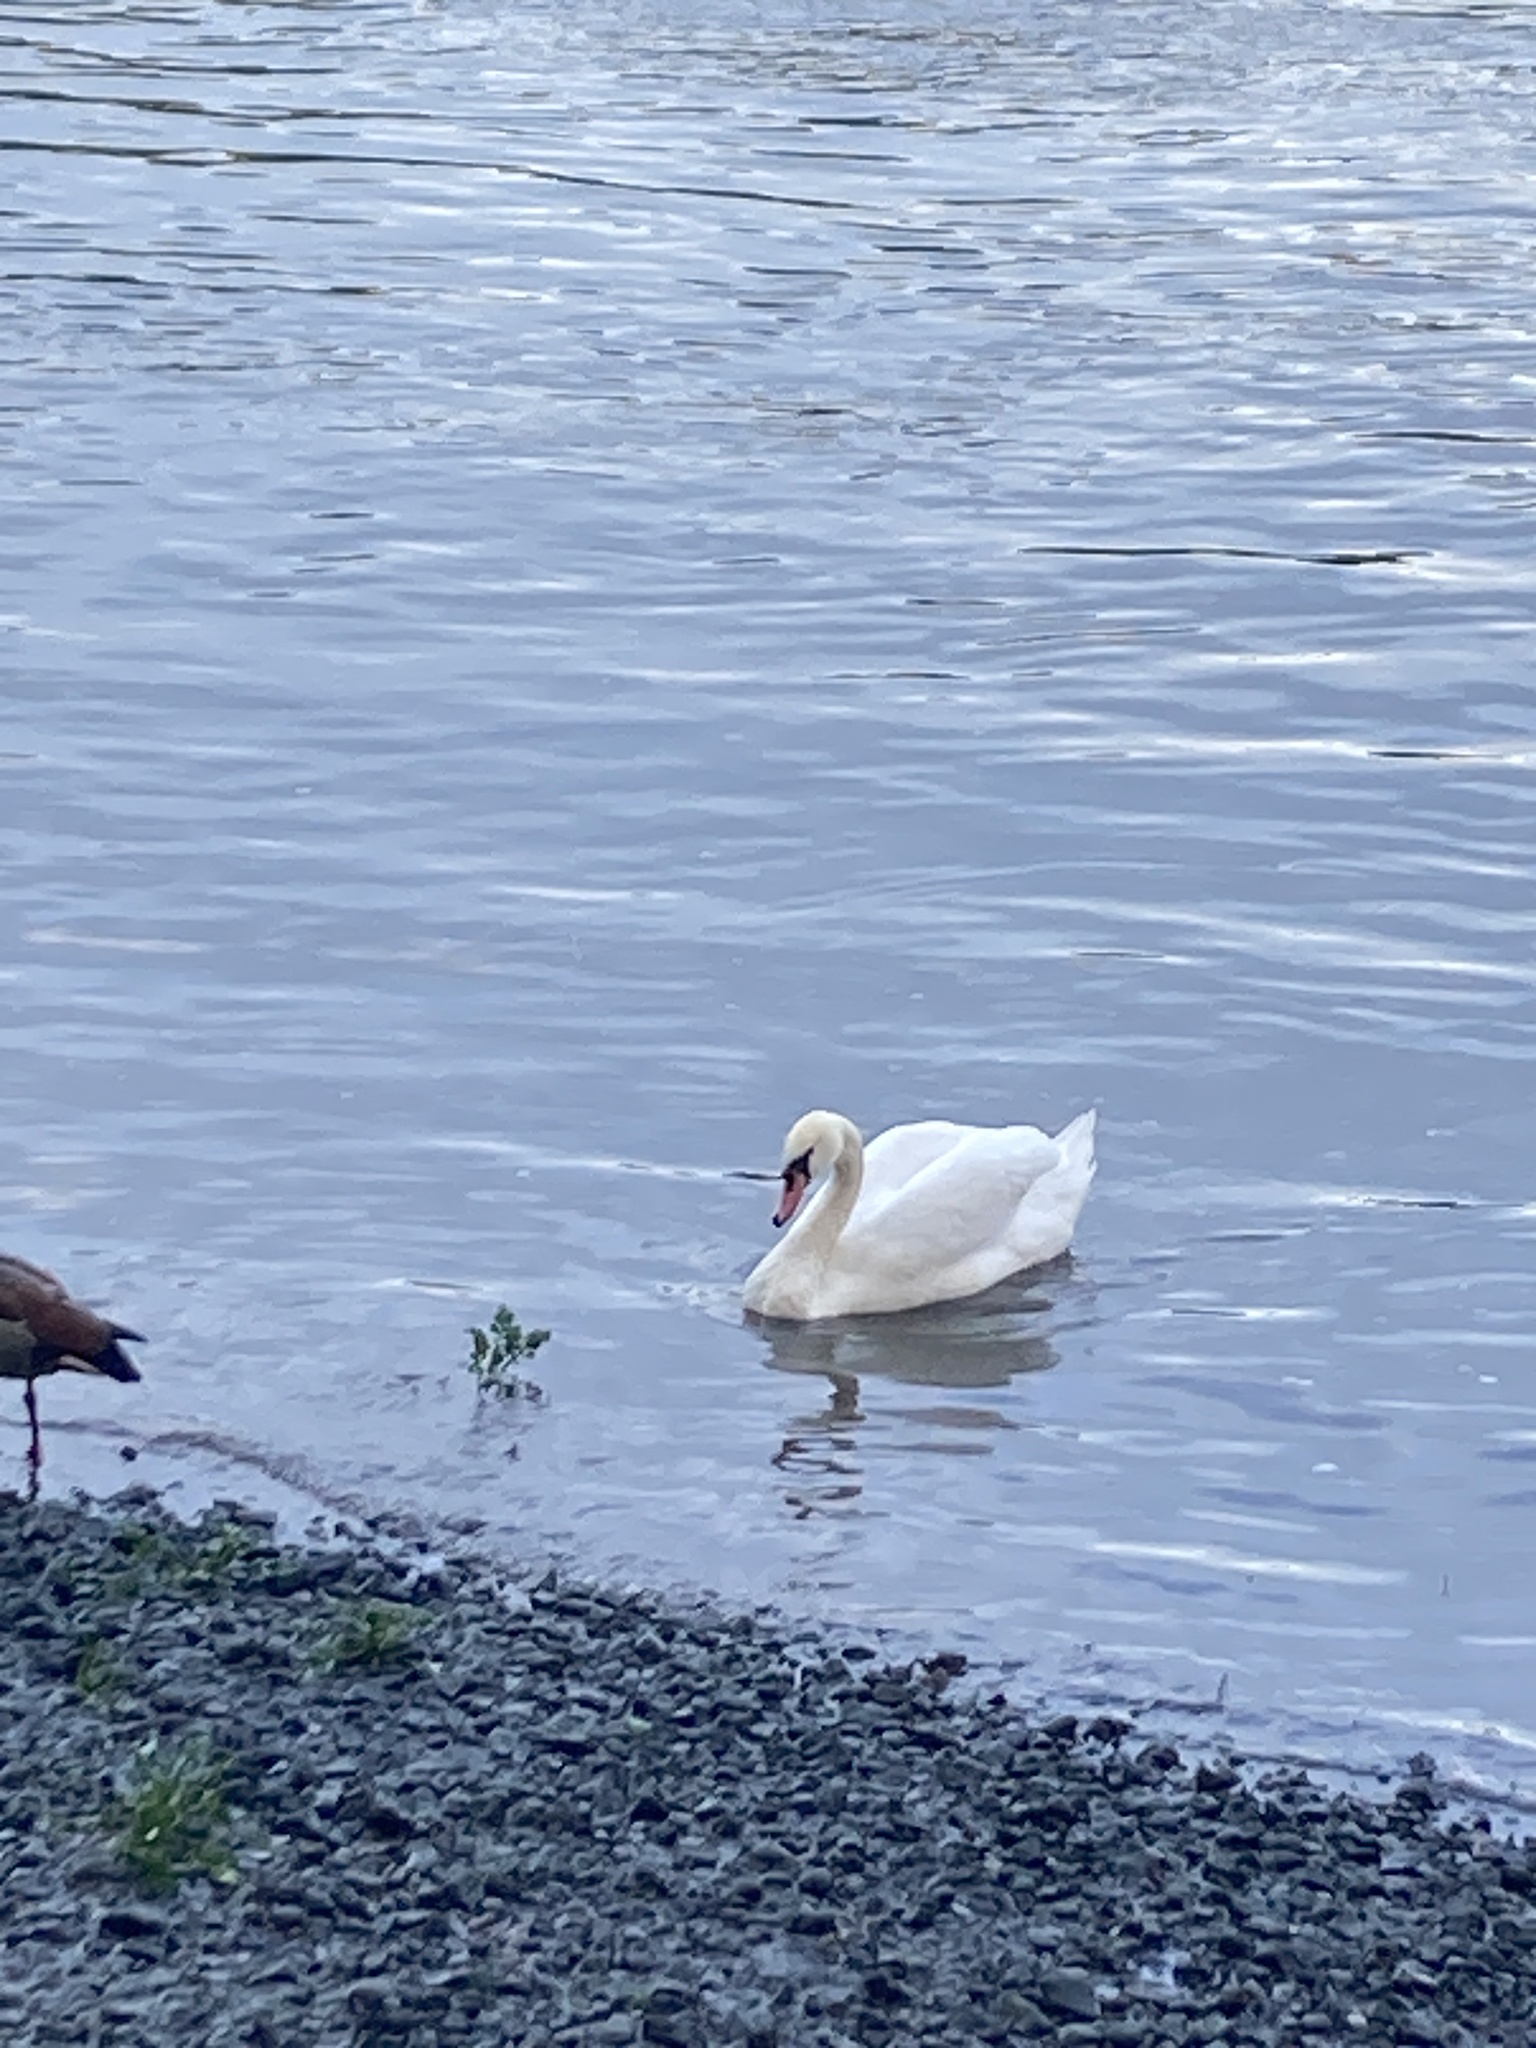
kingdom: Animalia
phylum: Chordata
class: Aves
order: Anseriformes
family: Anatidae
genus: Cygnus
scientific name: Cygnus olor
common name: Mute swan
